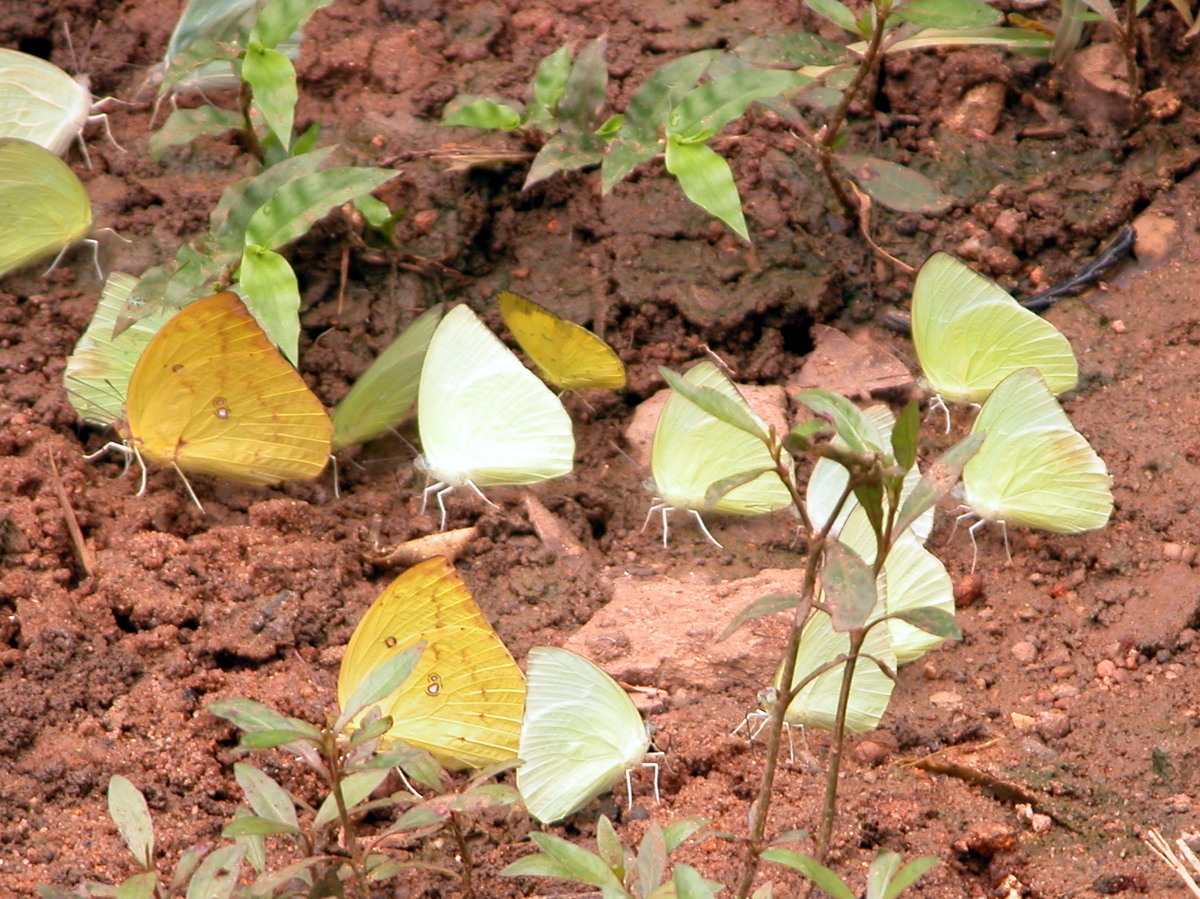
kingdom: Animalia
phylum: Arthropoda
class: Insecta
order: Lepidoptera
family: Pieridae
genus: Catopsilia
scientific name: Catopsilia pomona
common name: Common emigrant
